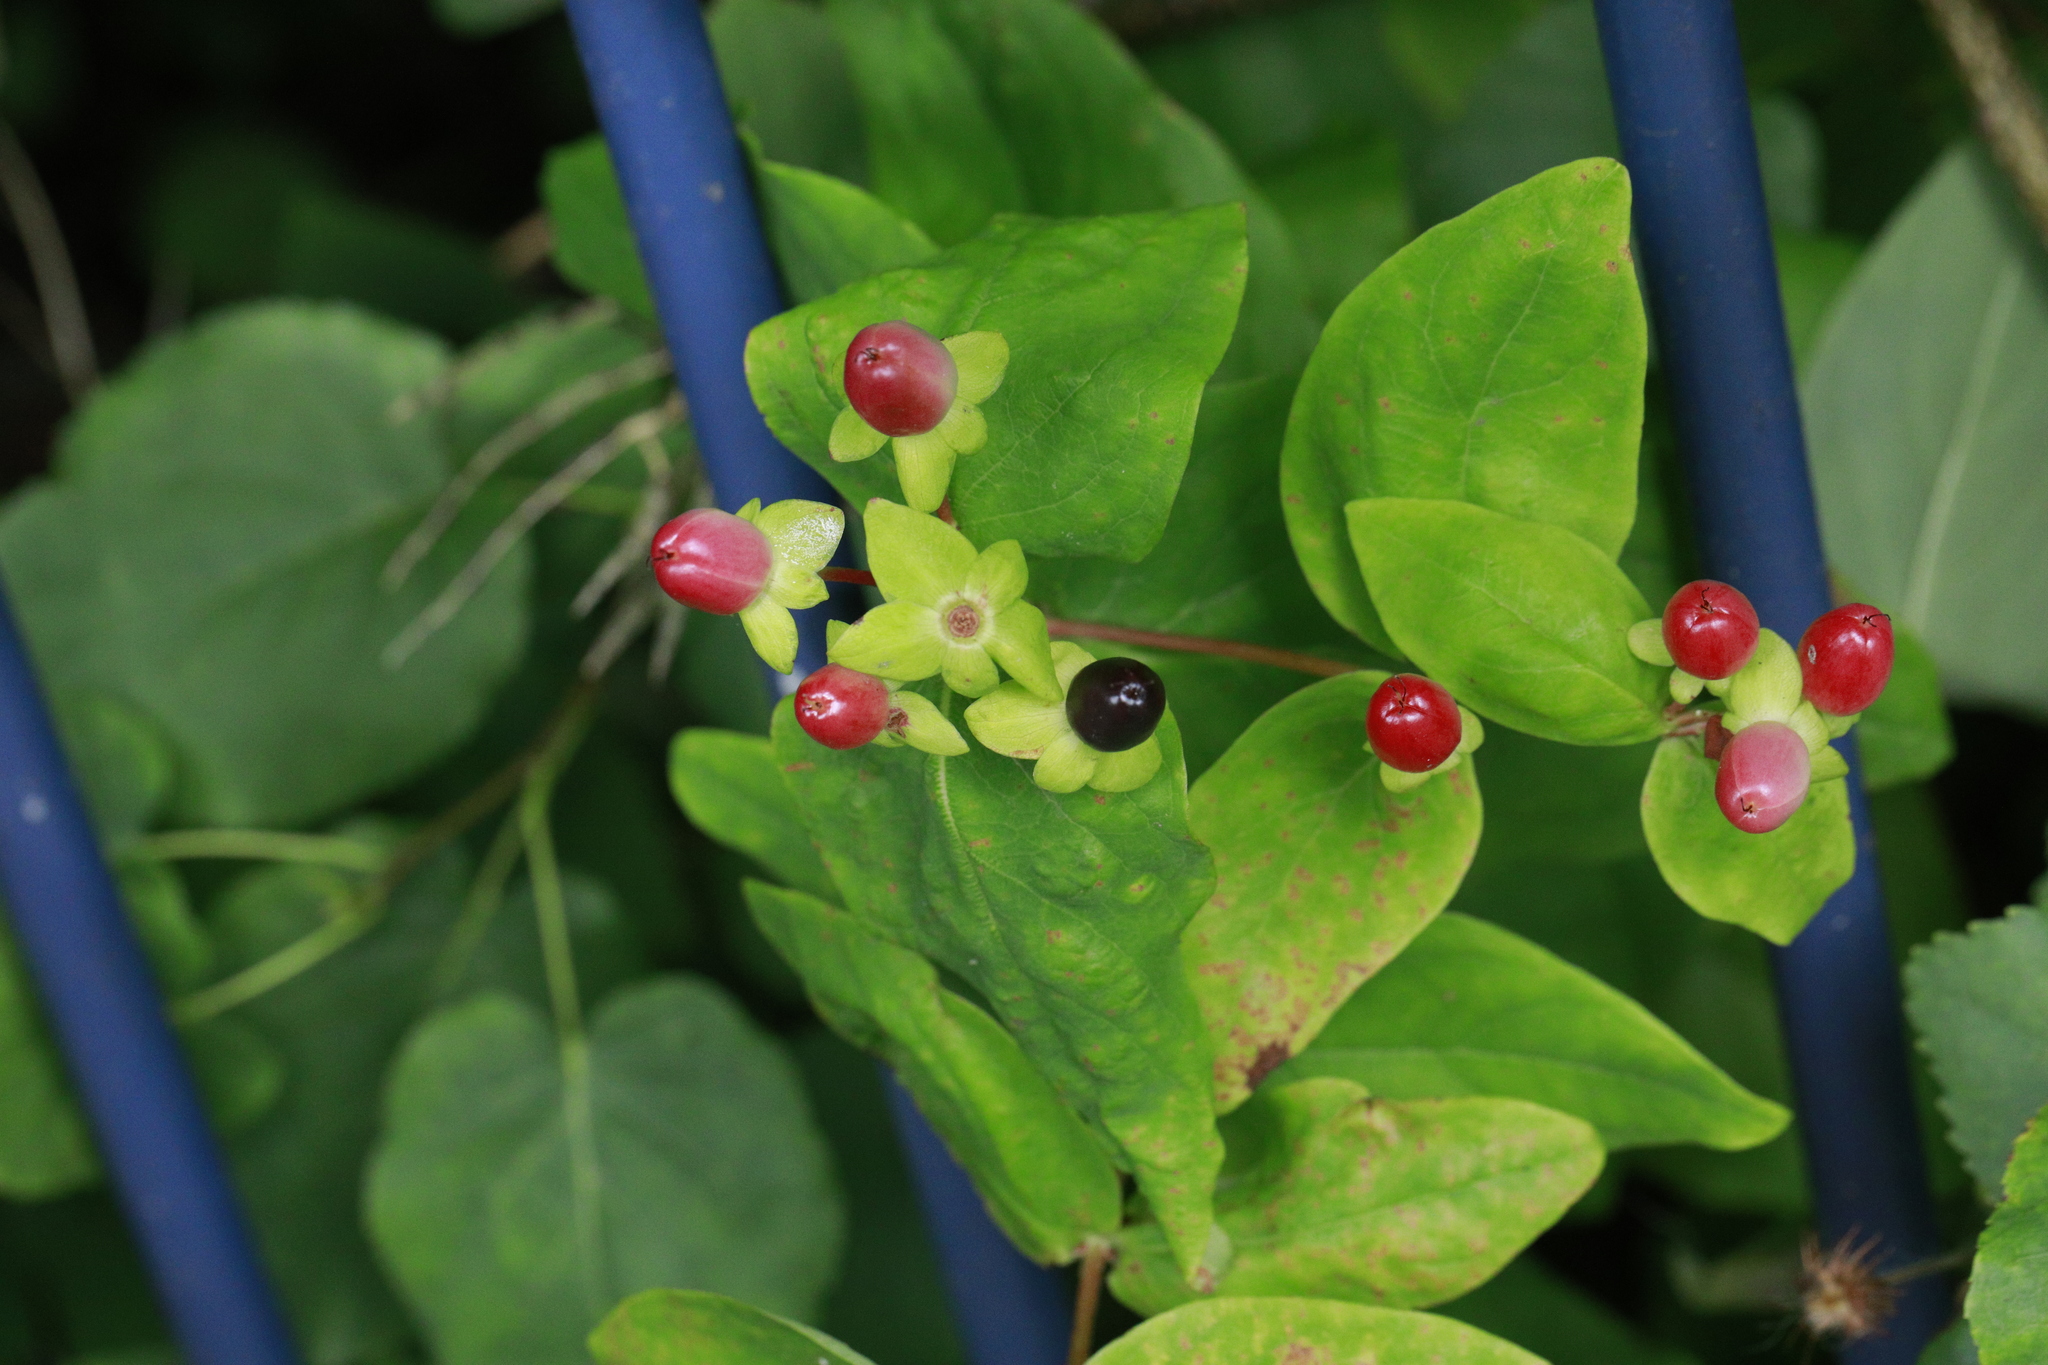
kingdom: Plantae
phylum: Tracheophyta
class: Magnoliopsida
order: Malpighiales
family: Hypericaceae
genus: Hypericum
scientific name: Hypericum androsaemum
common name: Sweet-amber
